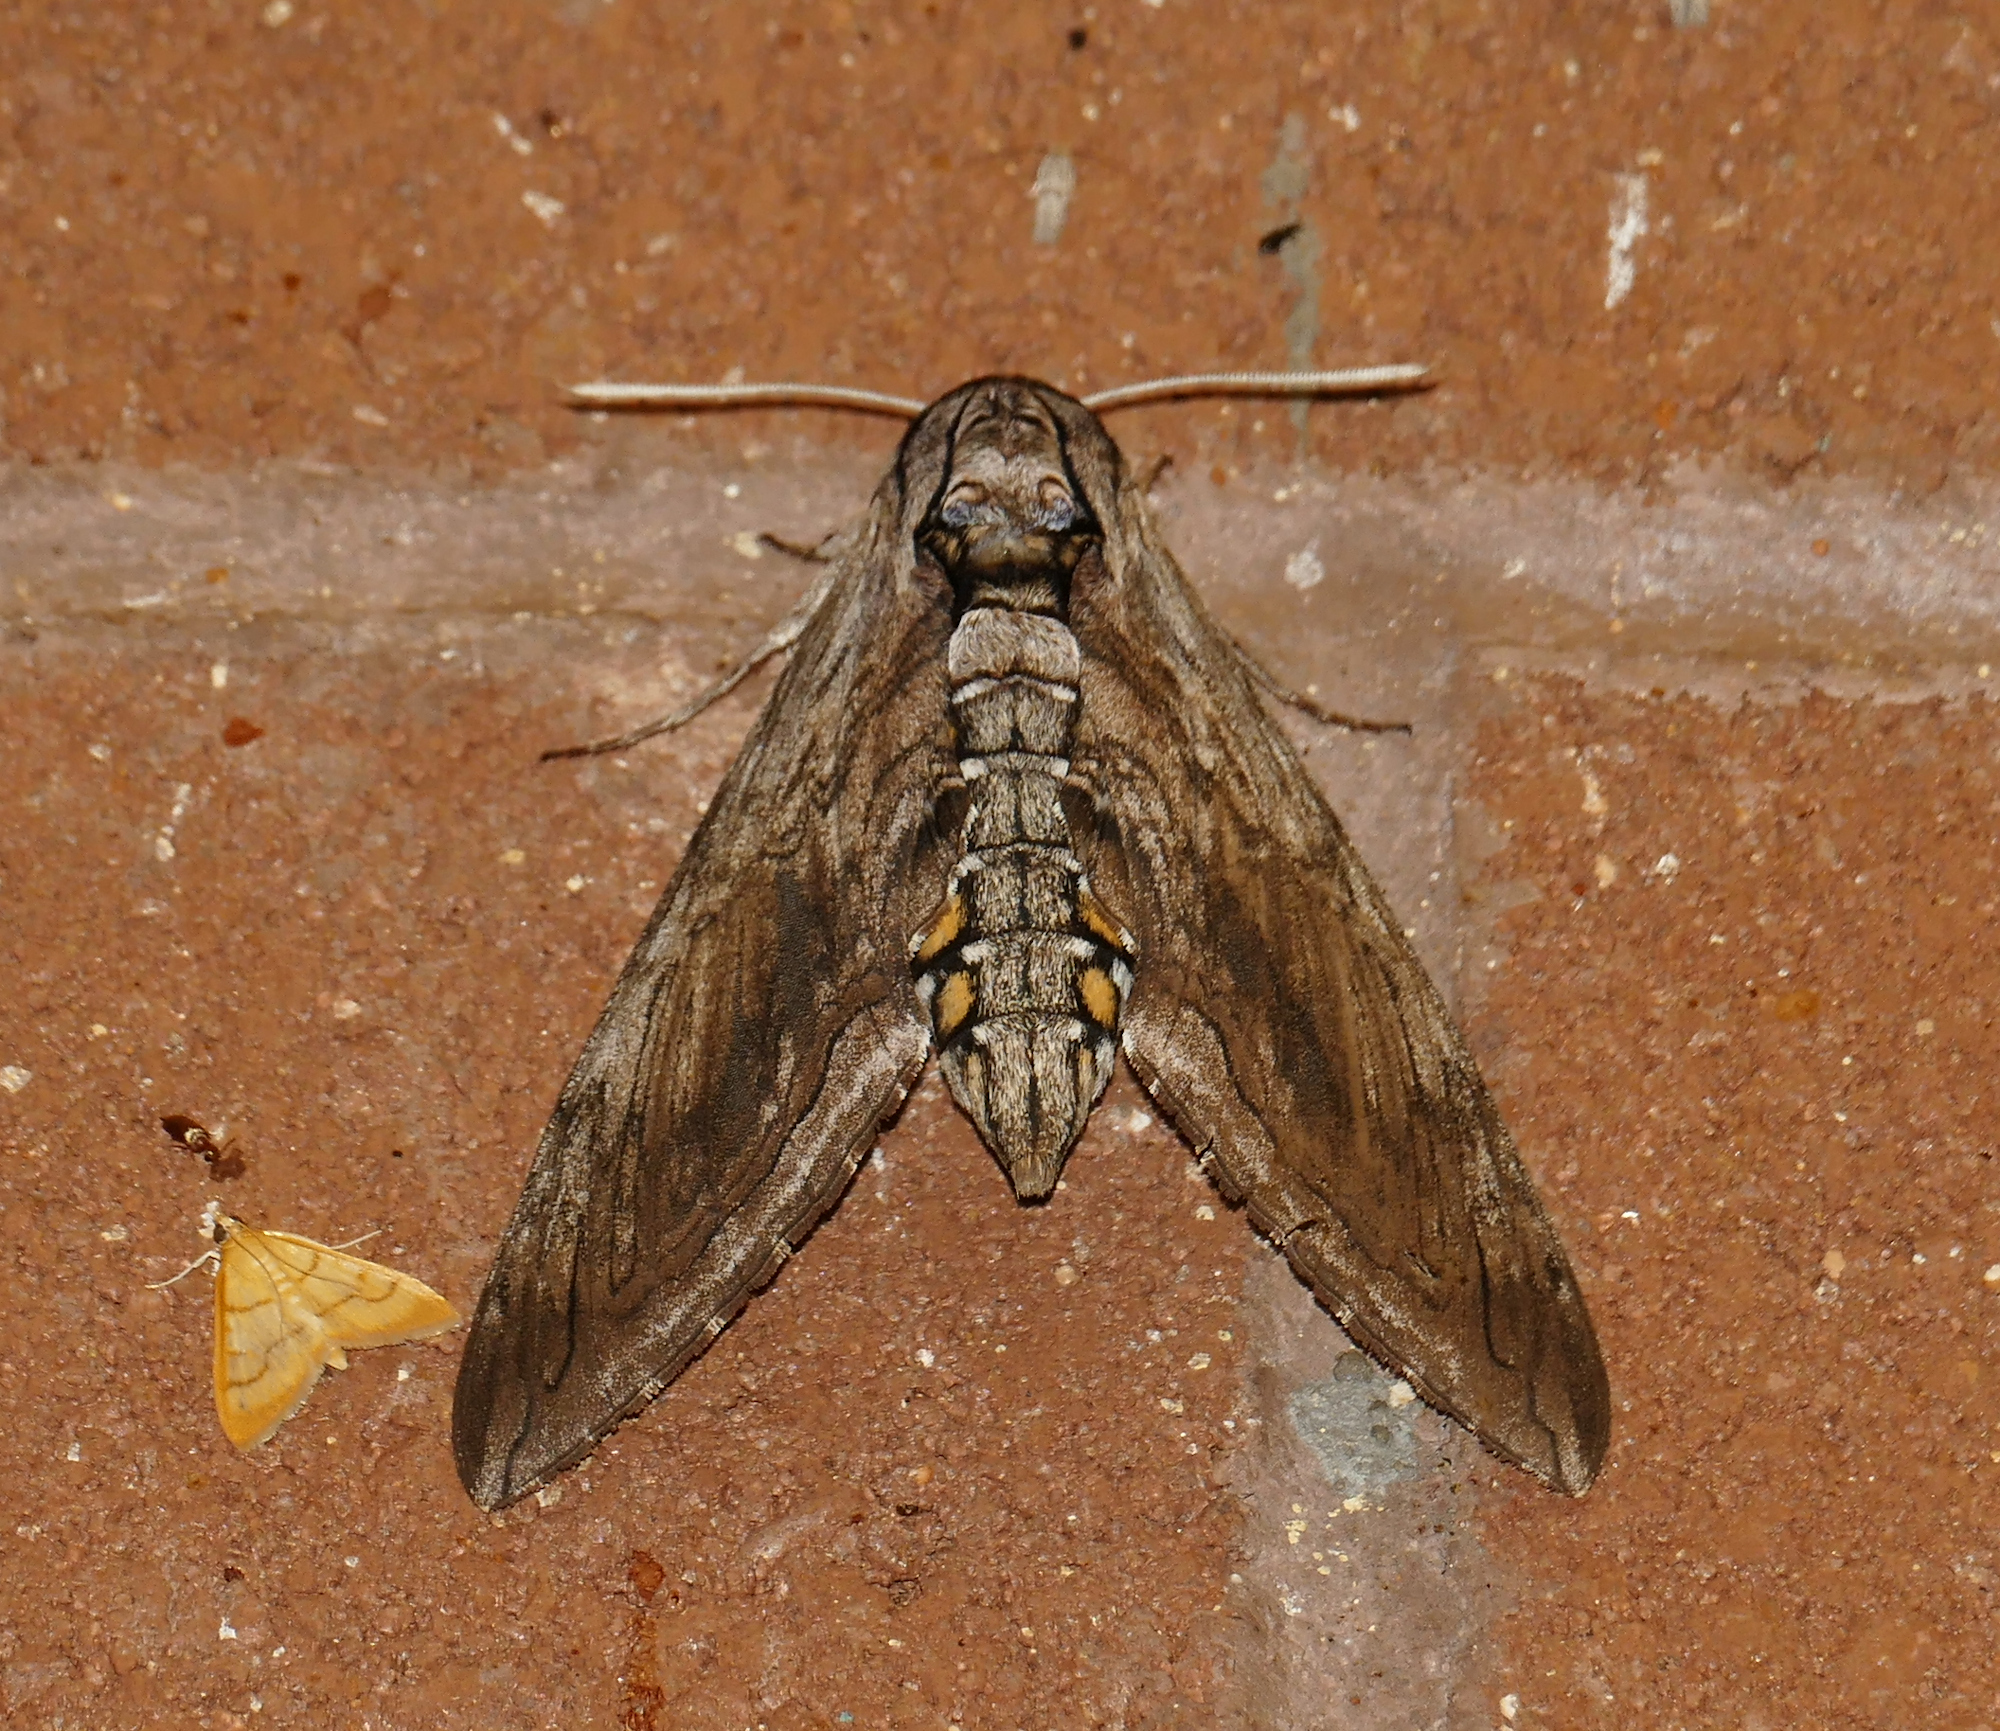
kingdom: Animalia
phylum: Arthropoda
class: Insecta
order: Lepidoptera
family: Sphingidae
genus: Manduca
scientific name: Manduca quinquemaculatus
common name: Five-spotted hawk-moth
